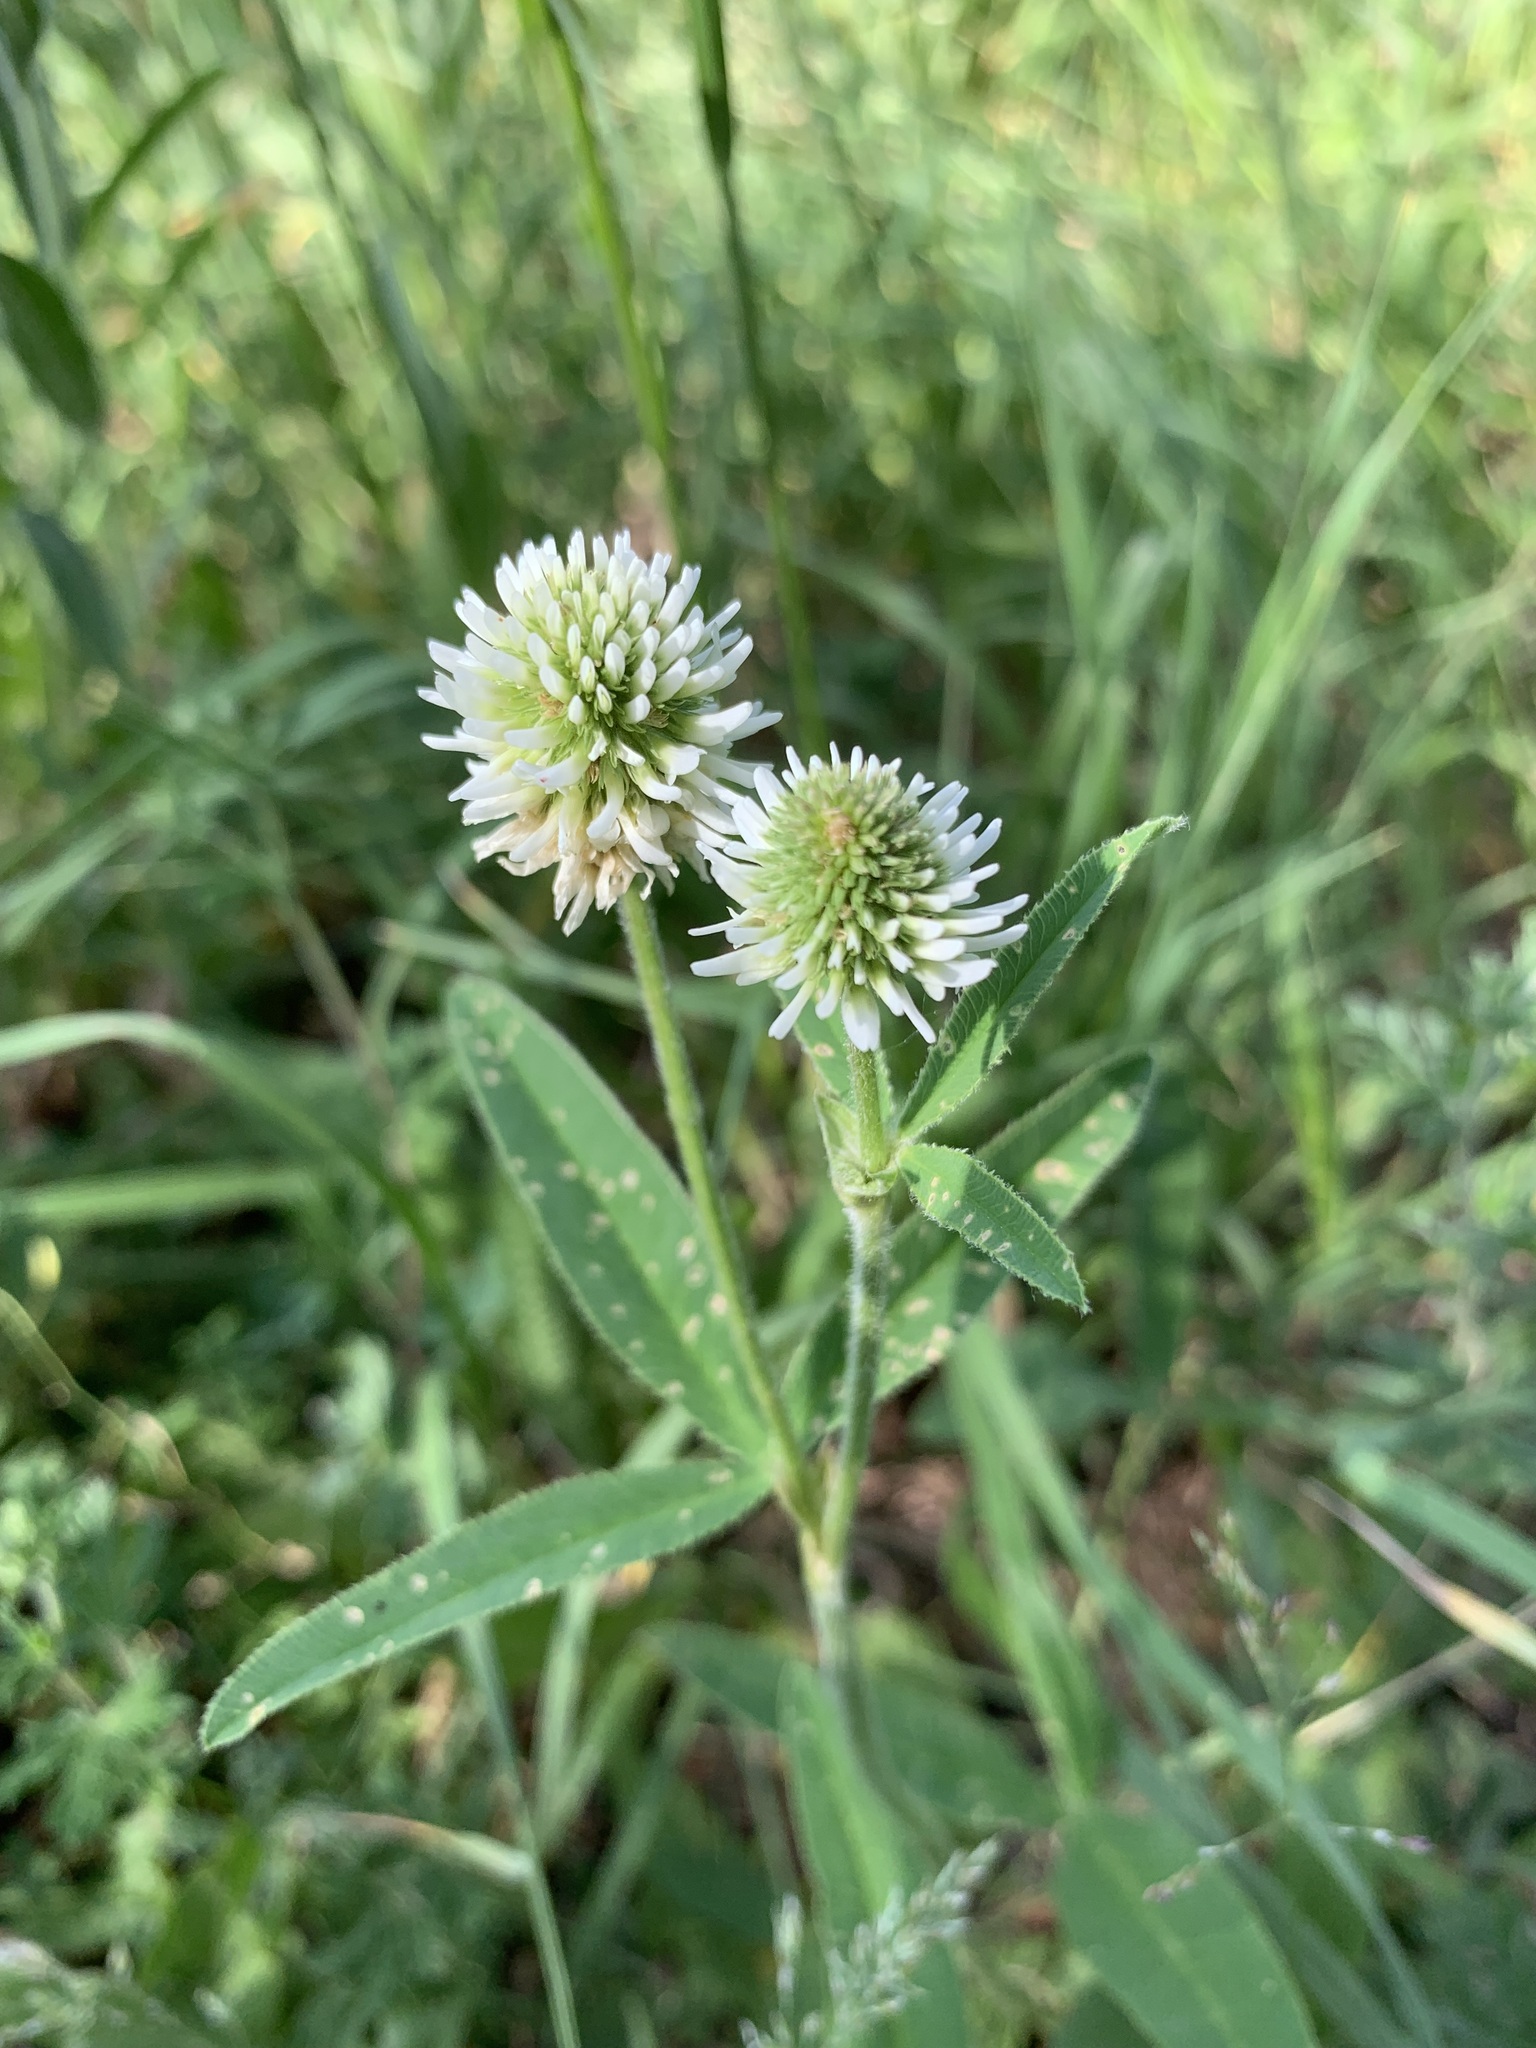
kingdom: Plantae
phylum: Tracheophyta
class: Magnoliopsida
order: Fabales
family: Fabaceae
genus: Trifolium
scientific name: Trifolium montanum
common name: Mountain clover
